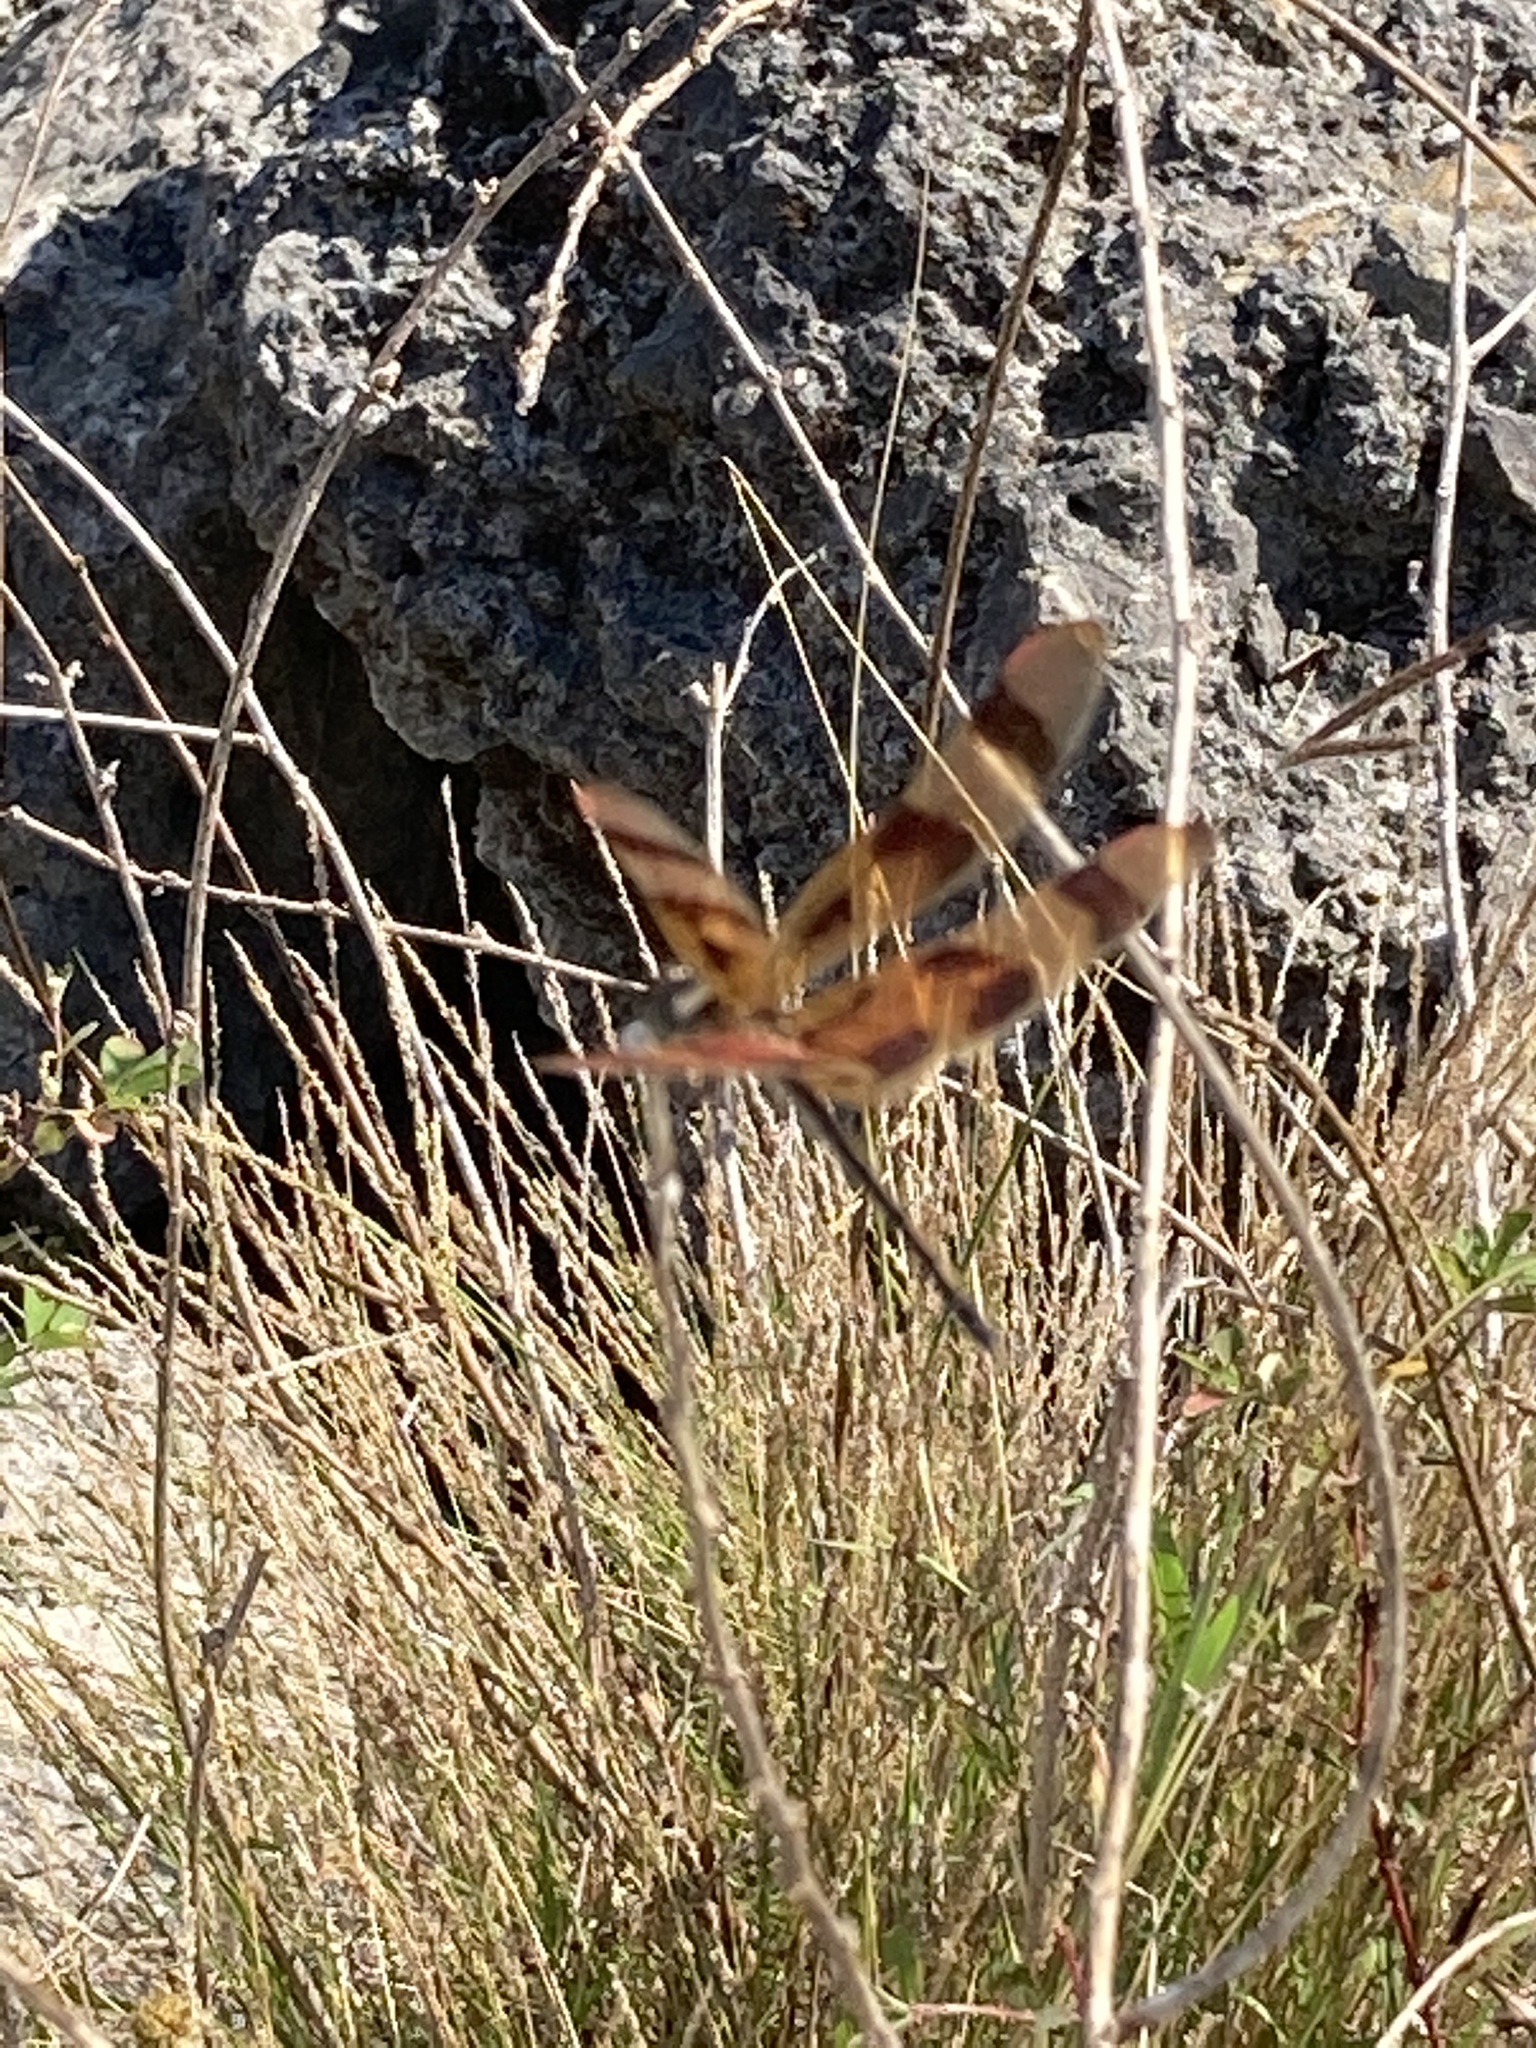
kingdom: Animalia
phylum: Arthropoda
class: Insecta
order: Odonata
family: Libellulidae
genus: Celithemis
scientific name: Celithemis eponina
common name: Halloween pennant
